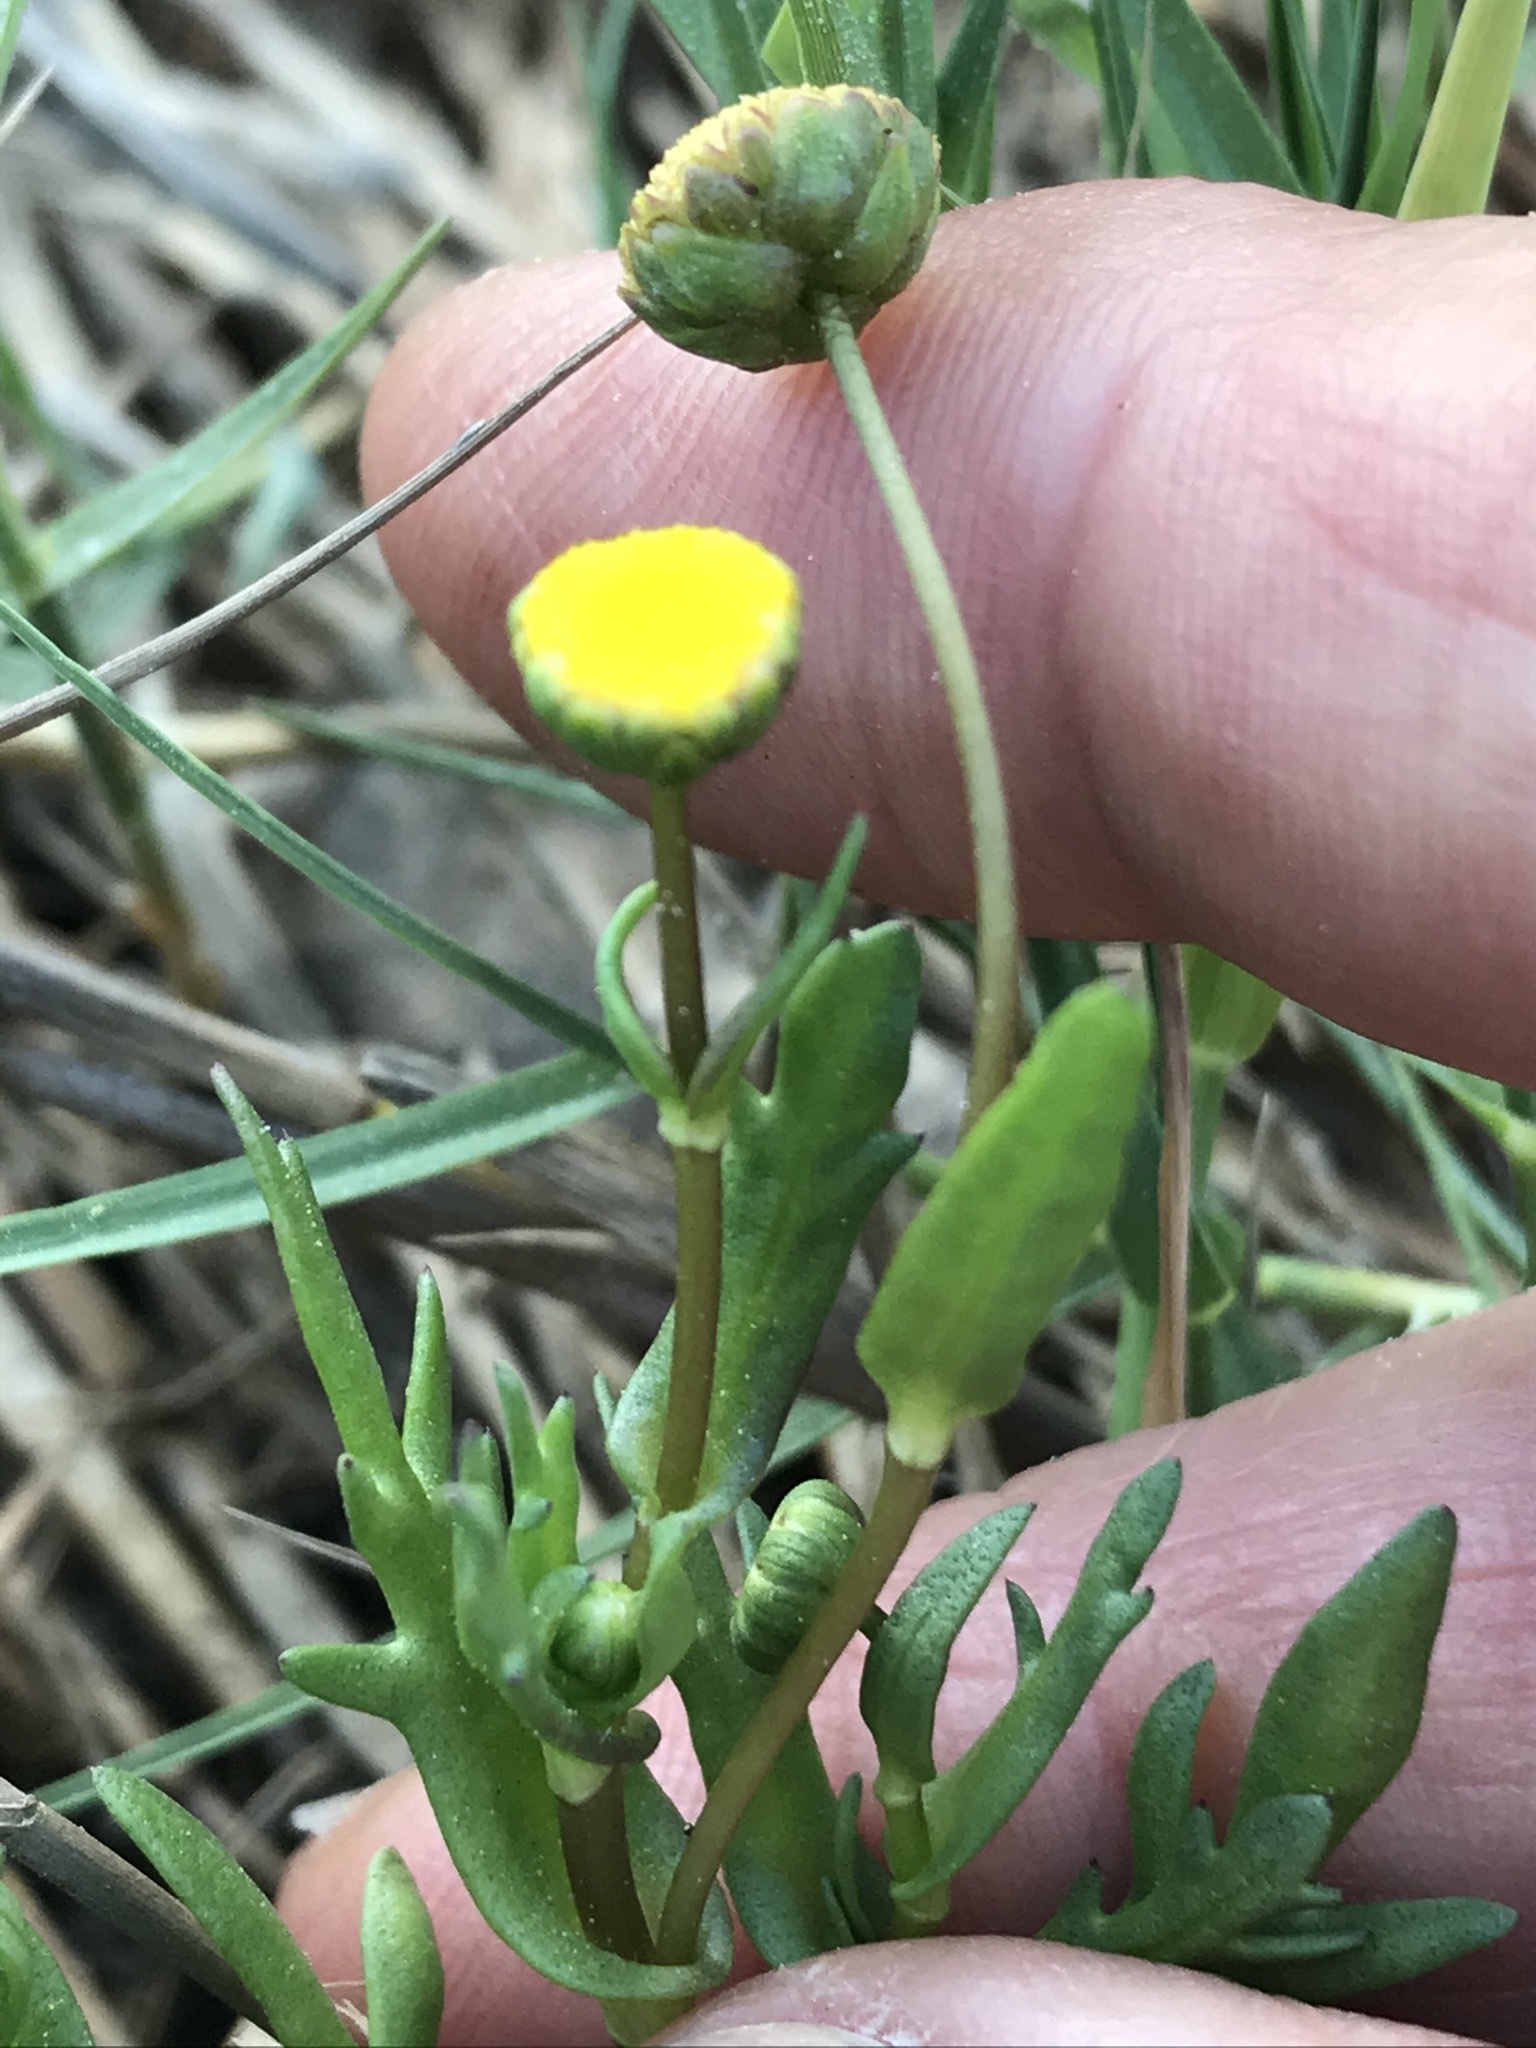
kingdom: Plantae
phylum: Tracheophyta
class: Magnoliopsida
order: Asterales
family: Asteraceae
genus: Cotula
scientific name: Cotula coronopifolia
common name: Buttonweed
